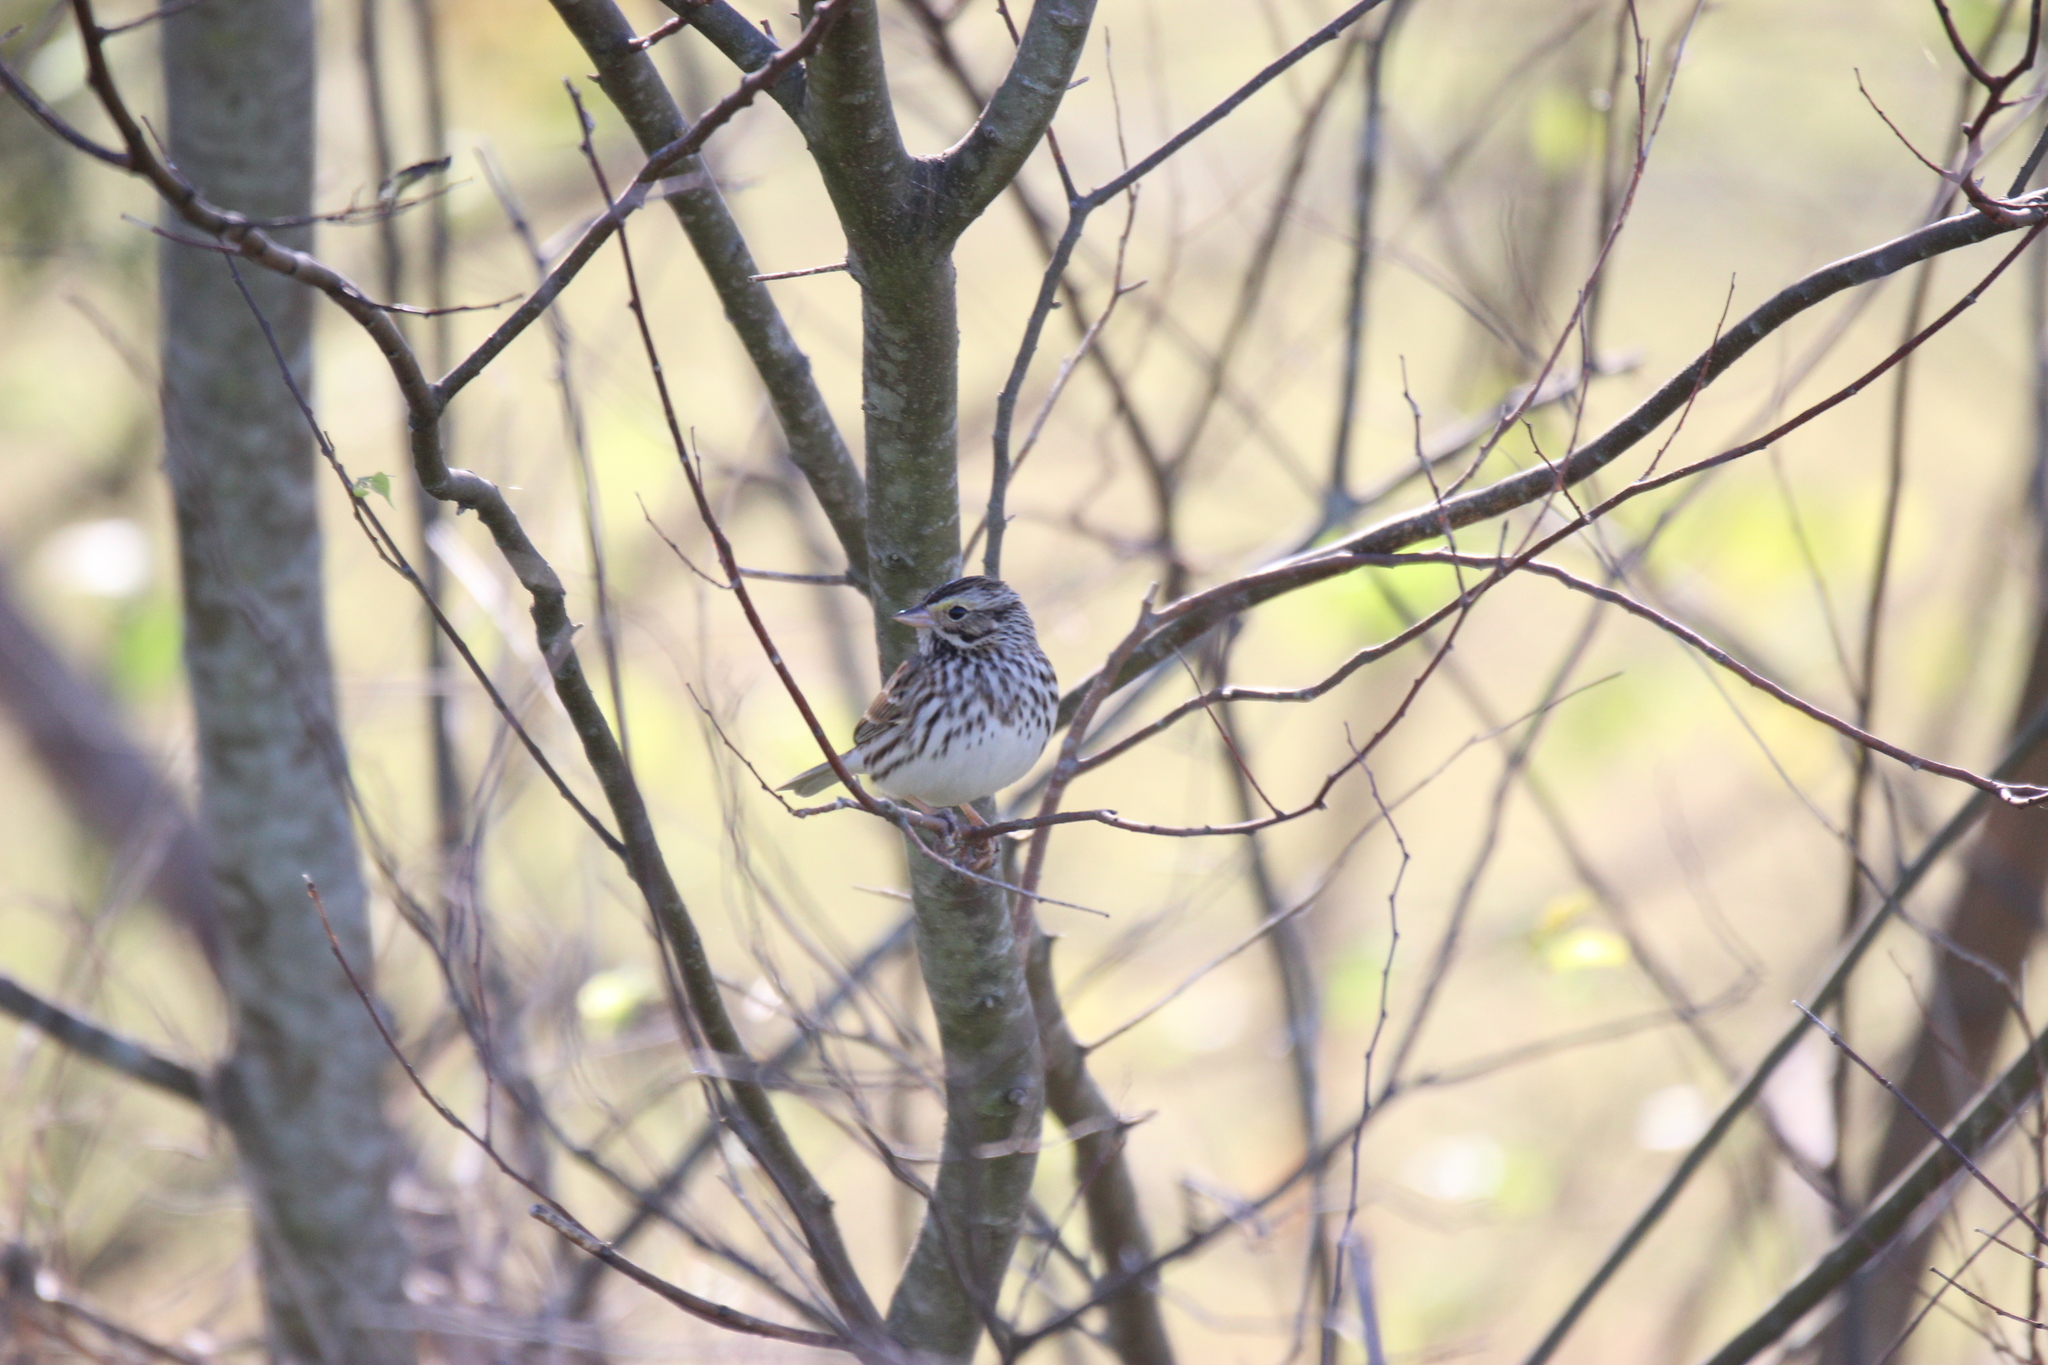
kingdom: Animalia
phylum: Chordata
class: Aves
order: Passeriformes
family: Passerellidae
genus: Passerculus
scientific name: Passerculus sandwichensis
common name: Savannah sparrow
